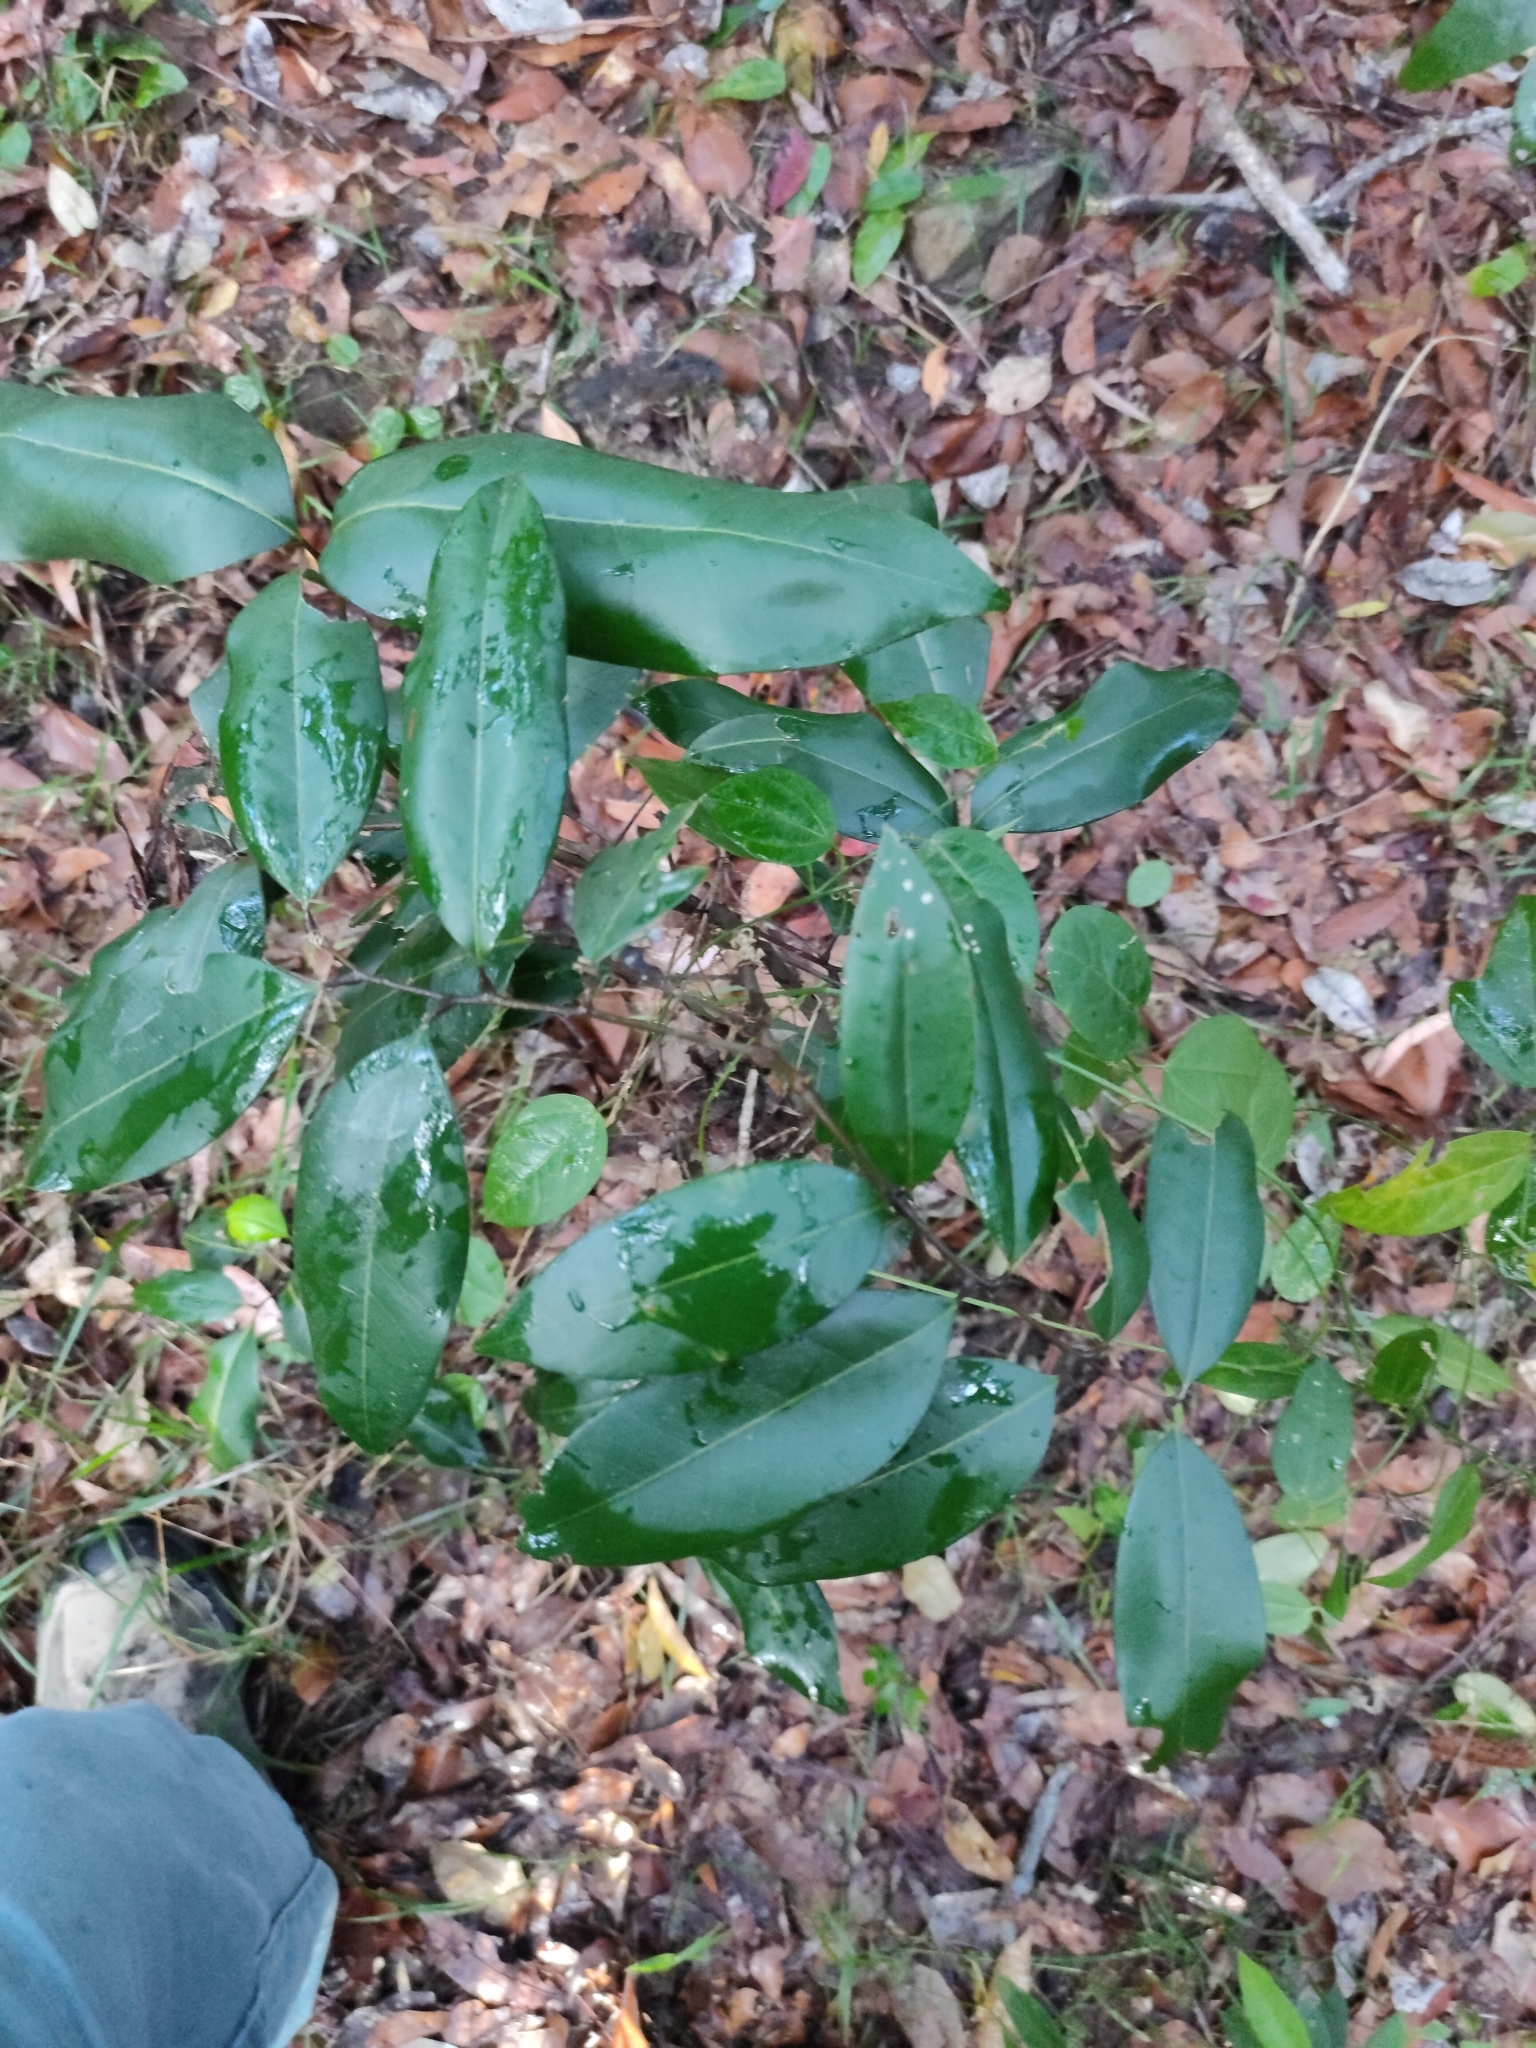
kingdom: Plantae
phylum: Tracheophyta
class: Magnoliopsida
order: Sapindales
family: Sapindaceae
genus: Mischocarpus
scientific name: Mischocarpus pyriformis
